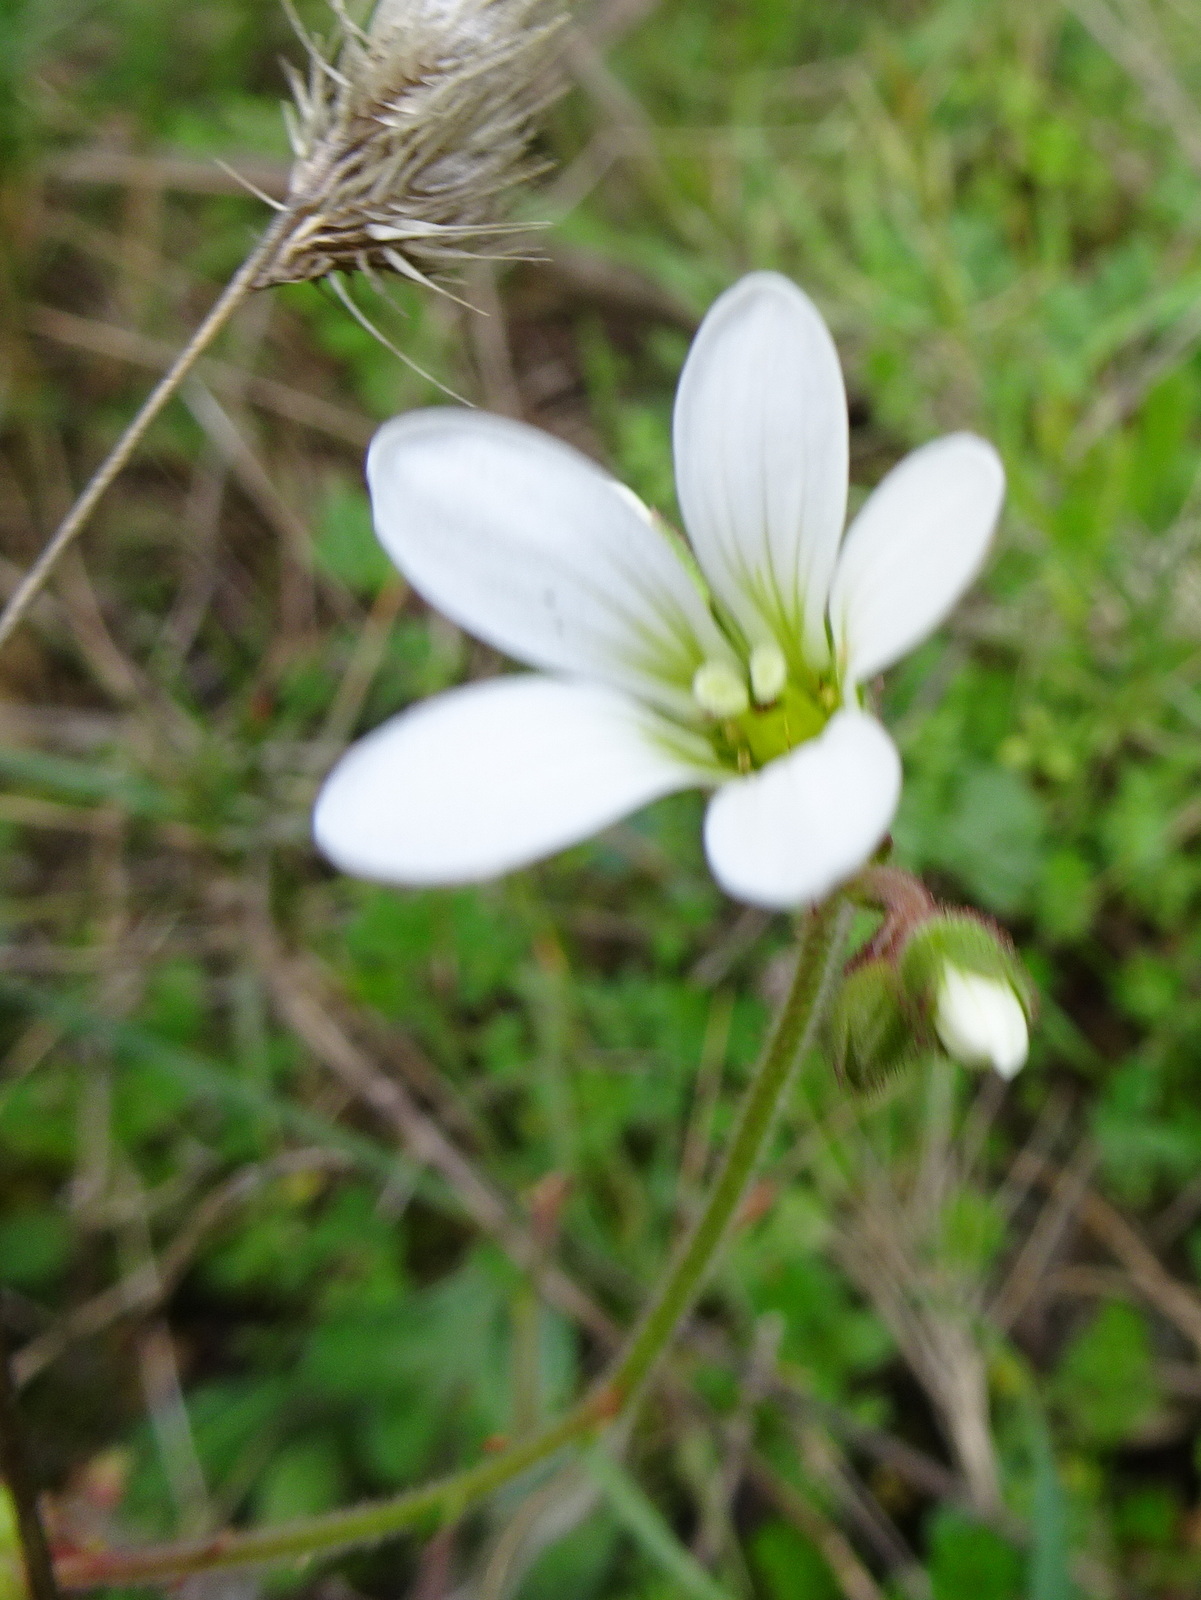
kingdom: Plantae
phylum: Tracheophyta
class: Magnoliopsida
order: Saxifragales
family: Saxifragaceae
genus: Saxifraga
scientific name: Saxifraga granulata
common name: Meadow saxifrage
